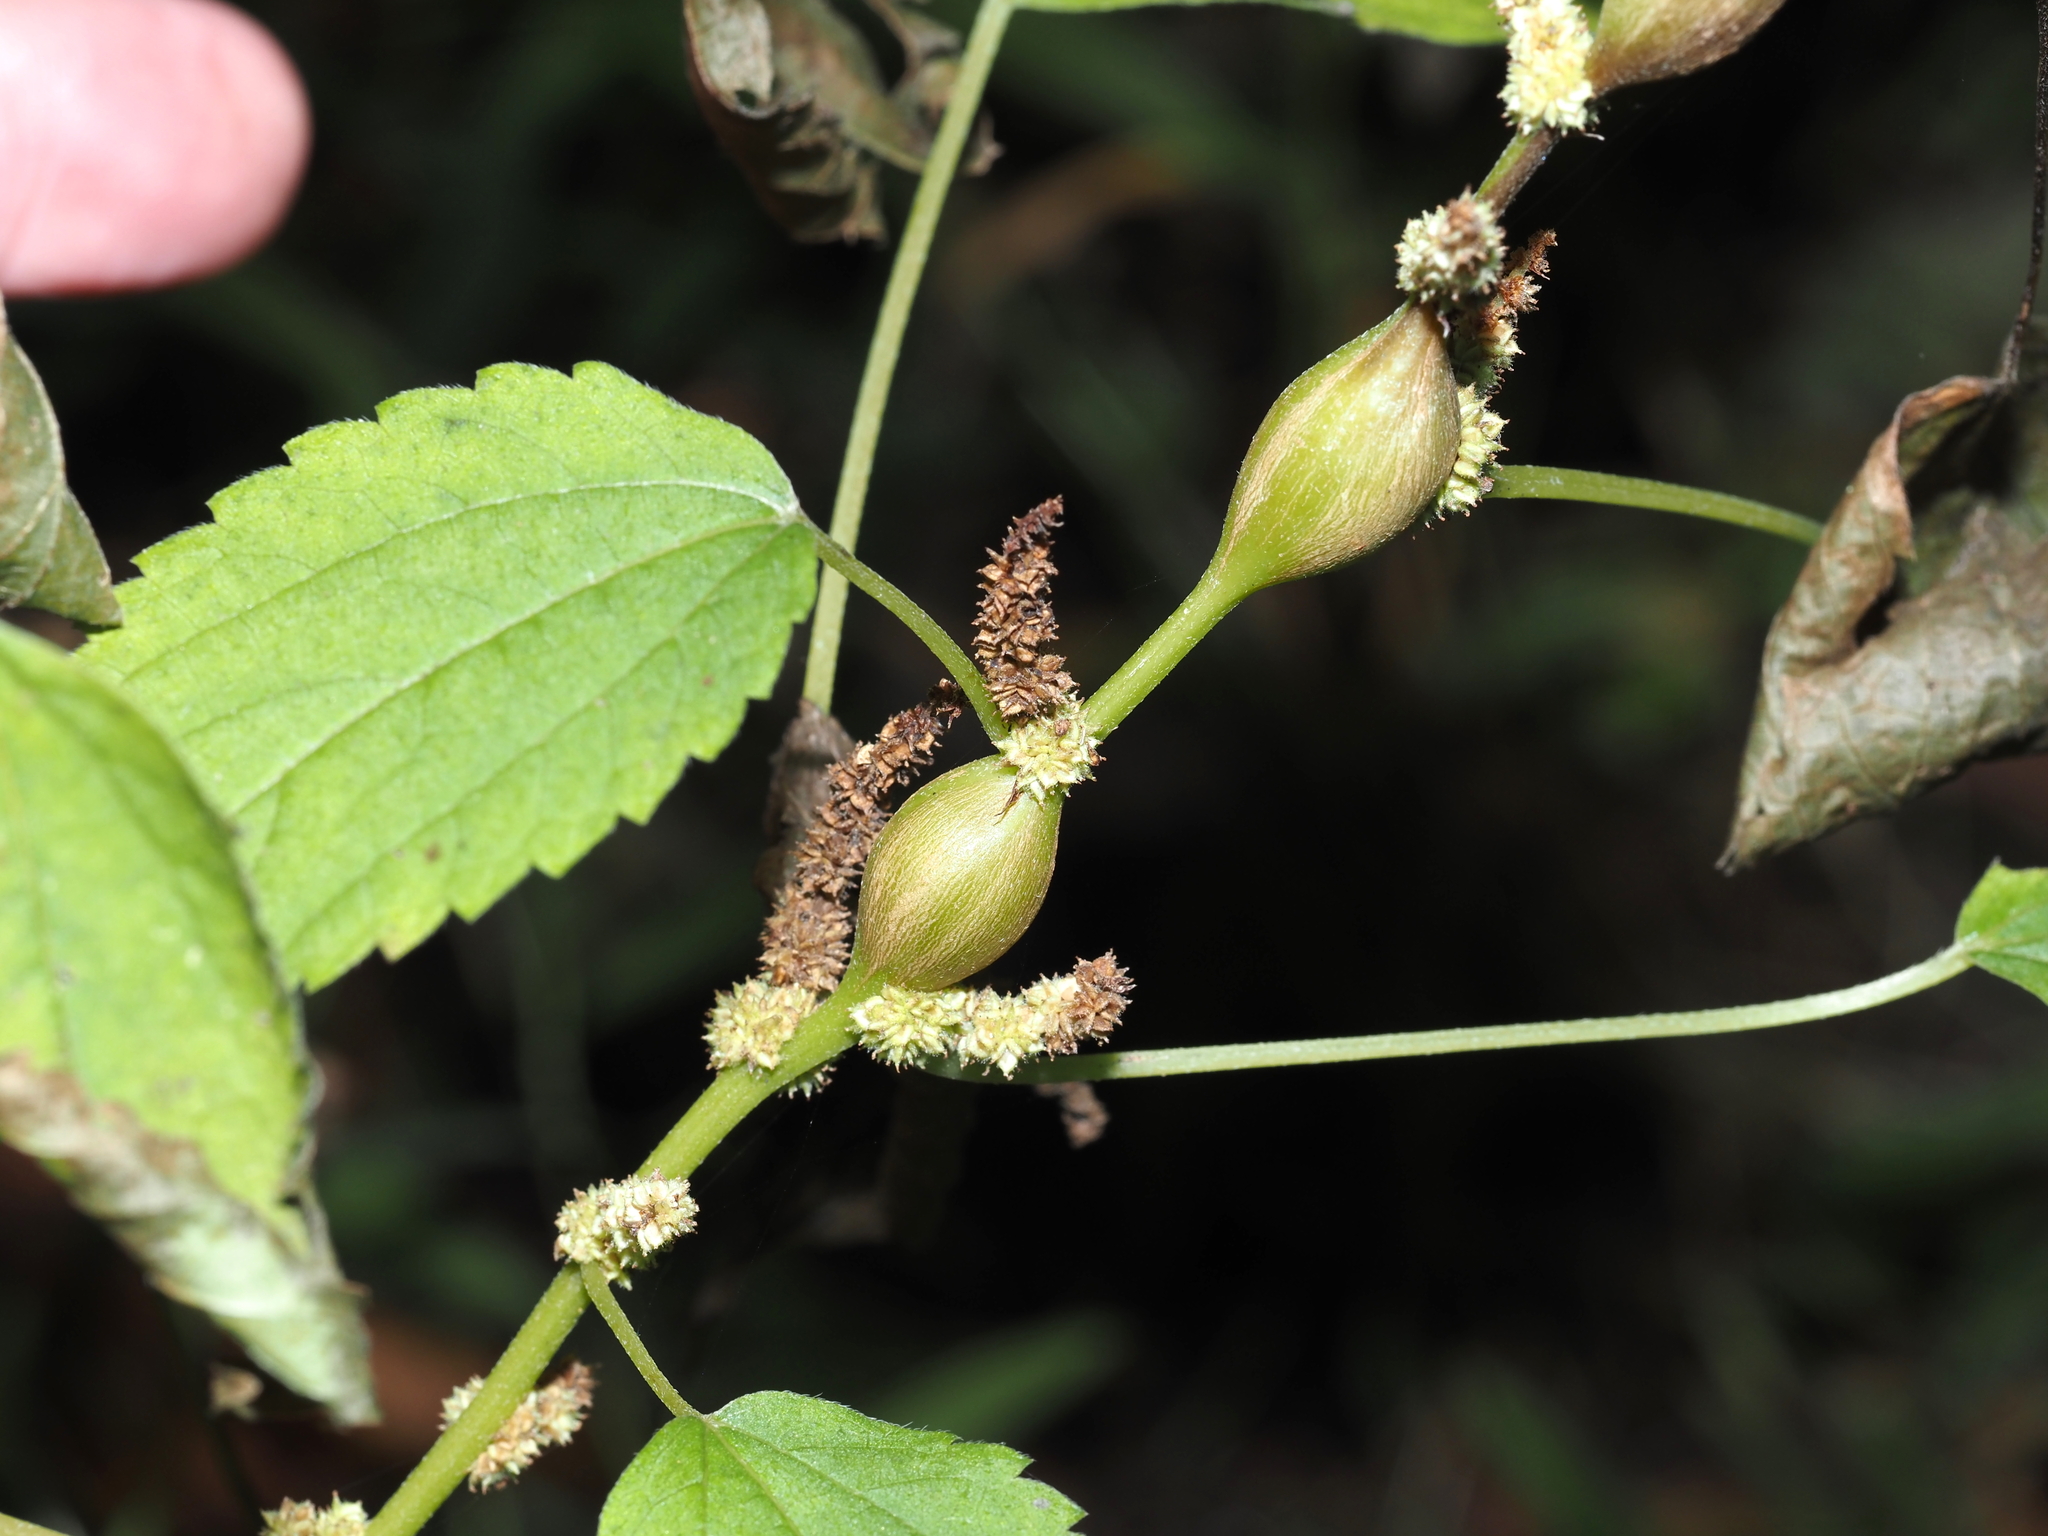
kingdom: Animalia
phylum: Arthropoda
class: Insecta
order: Diptera
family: Cecidomyiidae
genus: Neolasioptera
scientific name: Neolasioptera boehmeriae
